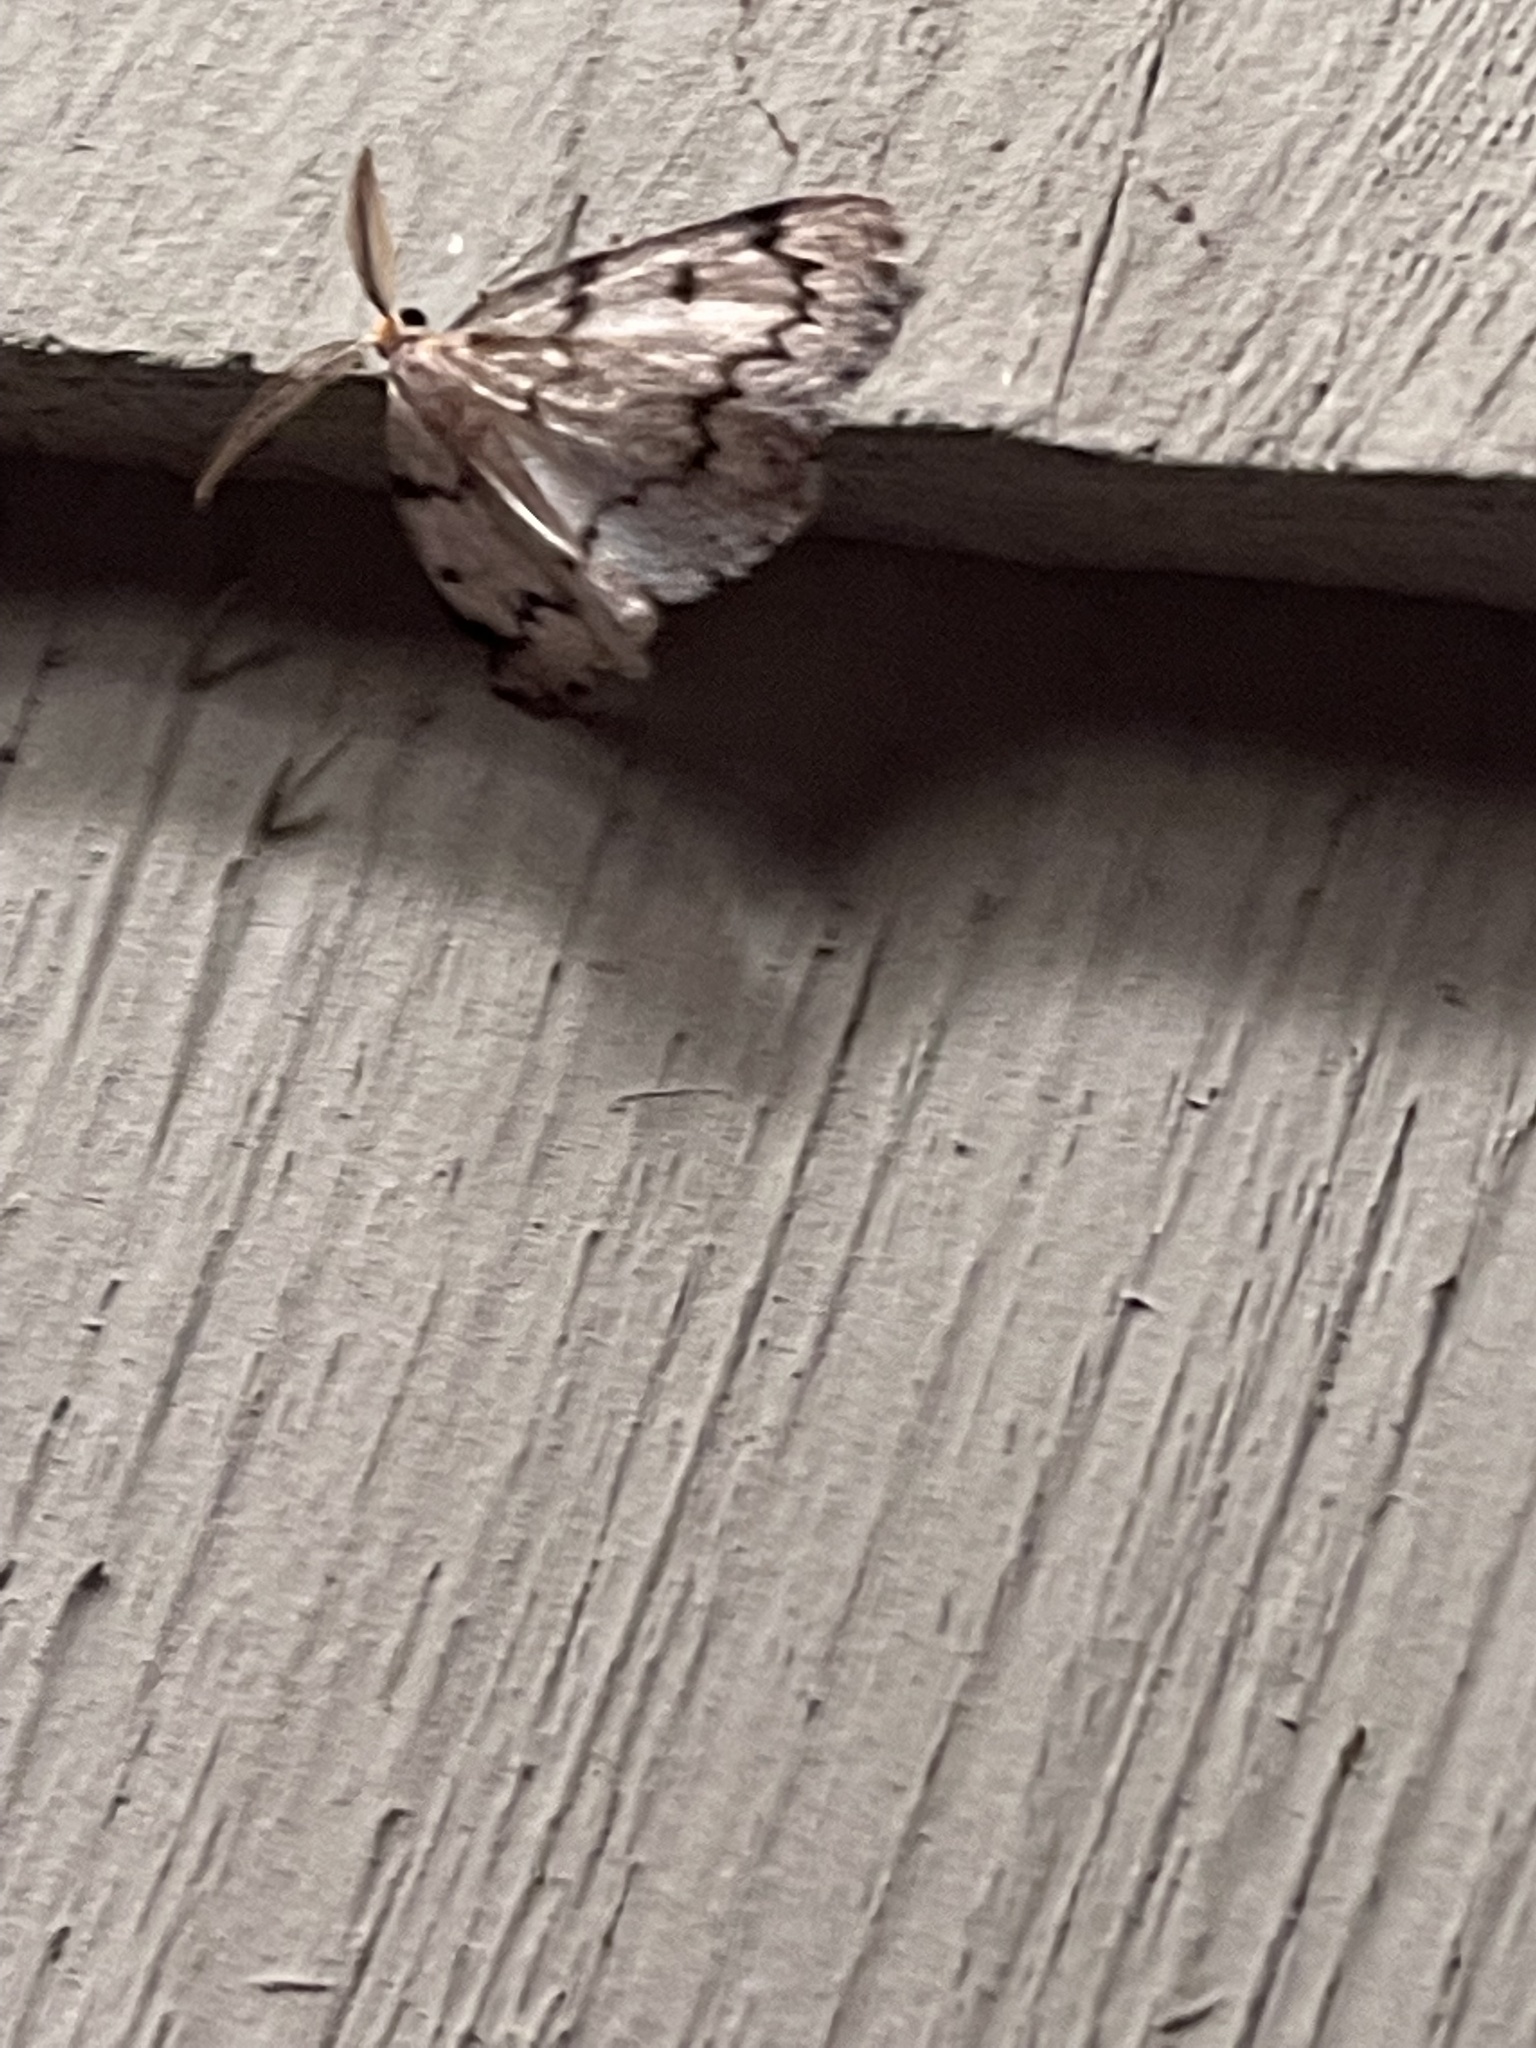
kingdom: Animalia
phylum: Arthropoda
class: Insecta
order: Lepidoptera
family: Geometridae
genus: Nepytia
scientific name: Nepytia canosaria
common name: False hemlock looper
